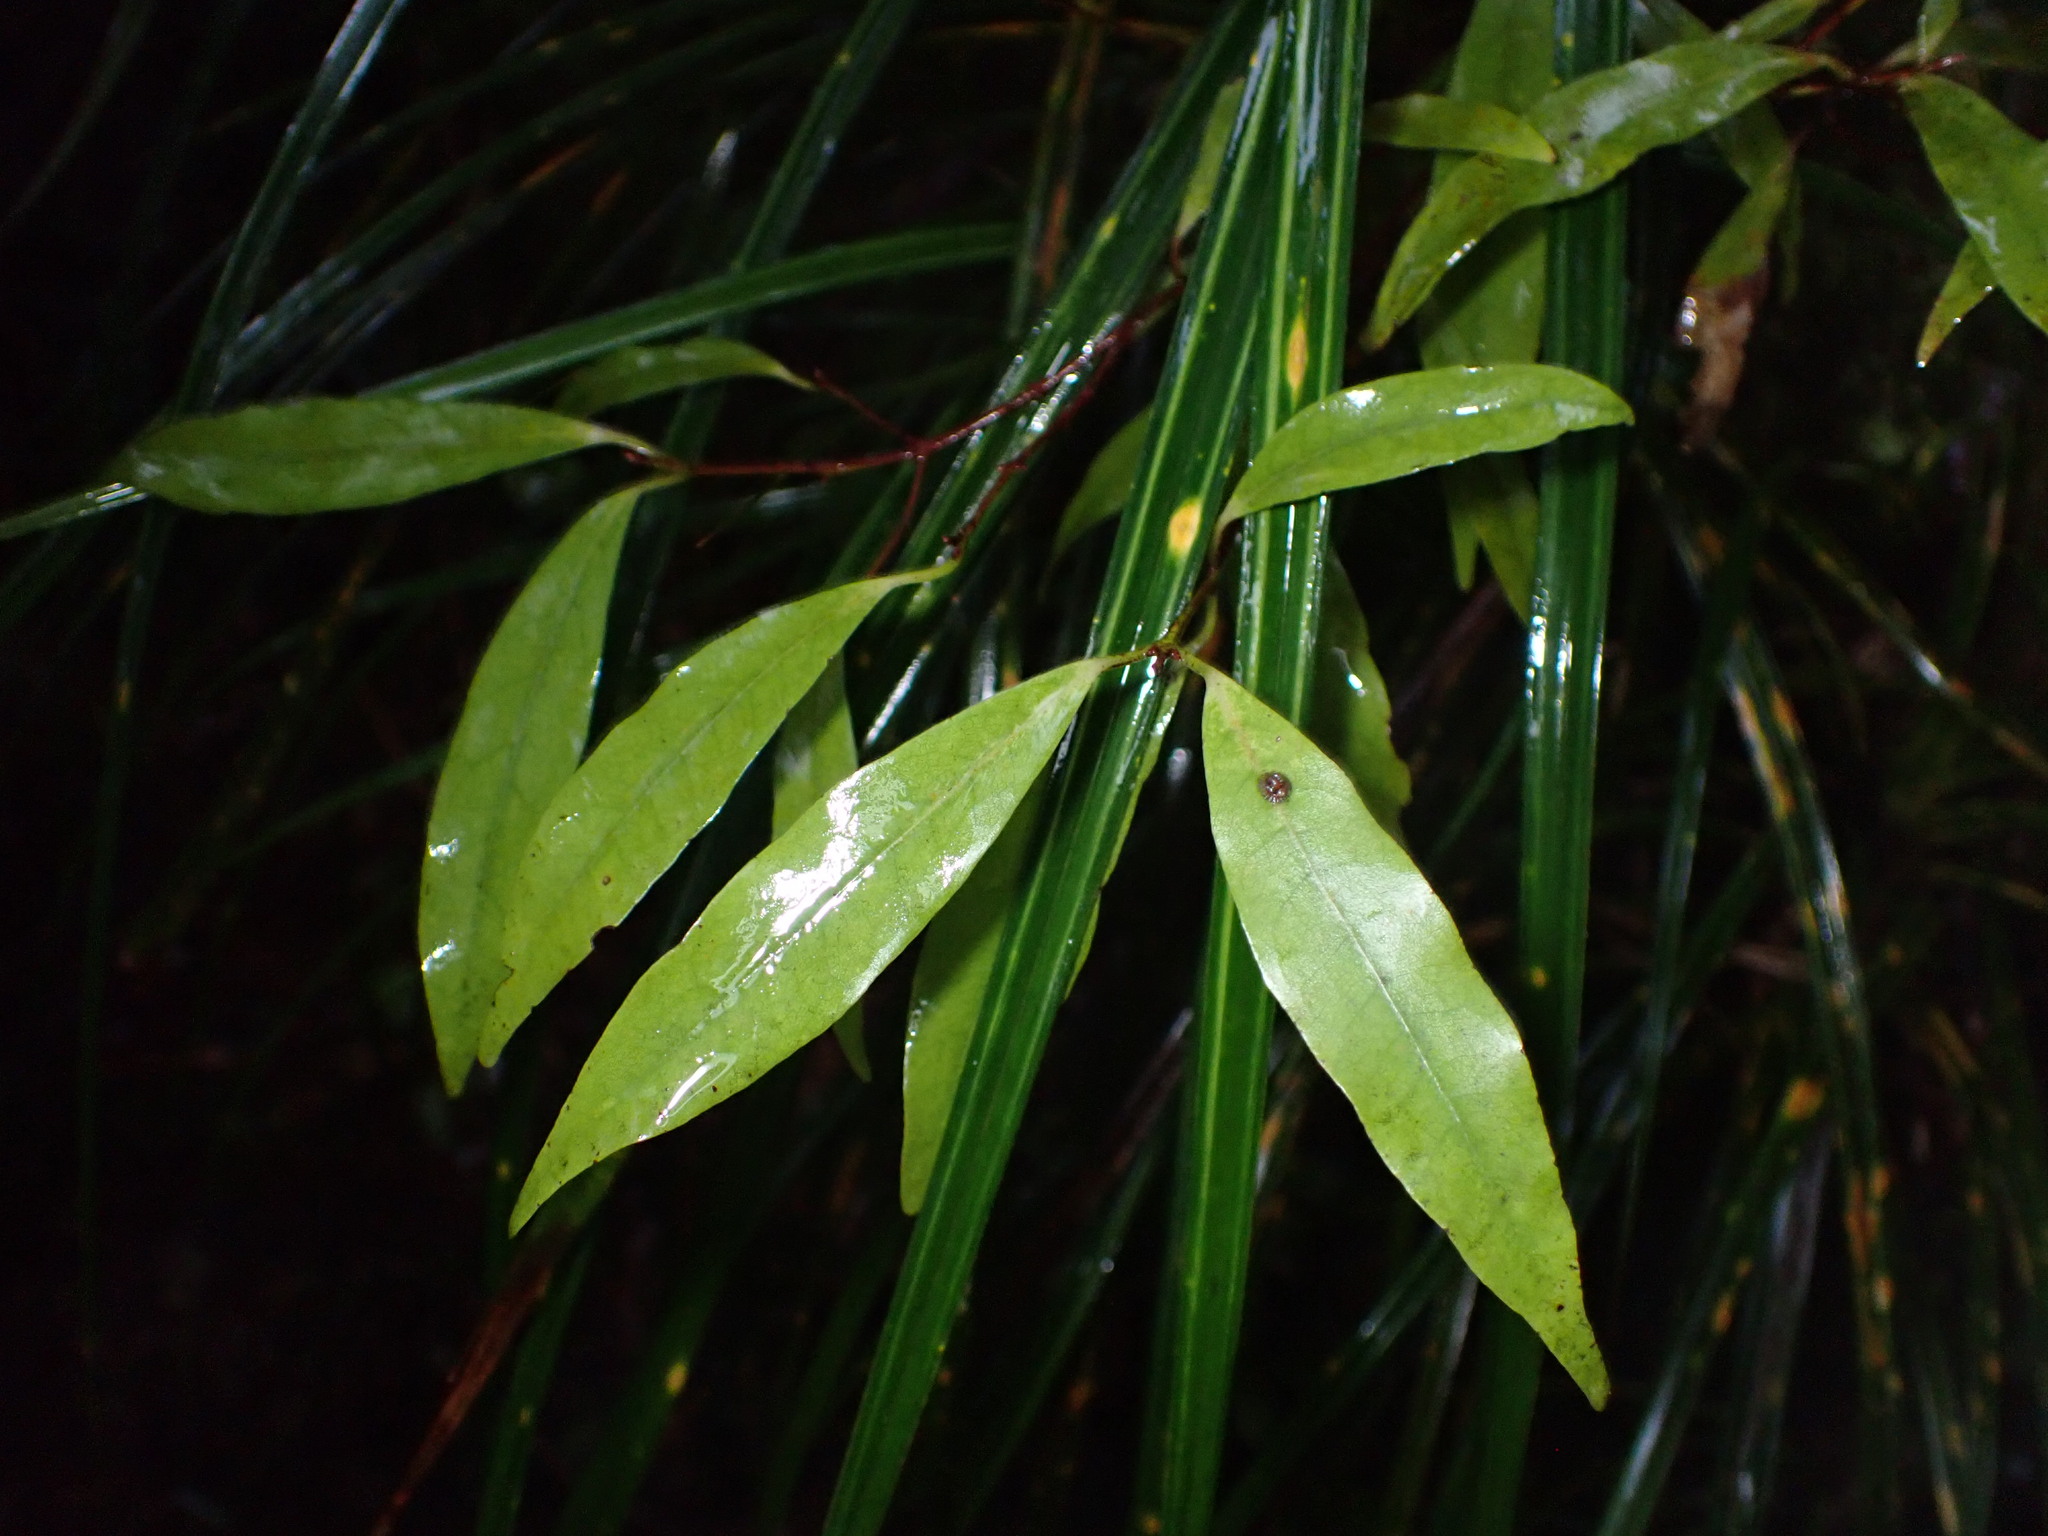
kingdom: Plantae
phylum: Tracheophyta
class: Magnoliopsida
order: Laurales
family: Lauraceae
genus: Beilschmiedia
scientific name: Beilschmiedia tawa
